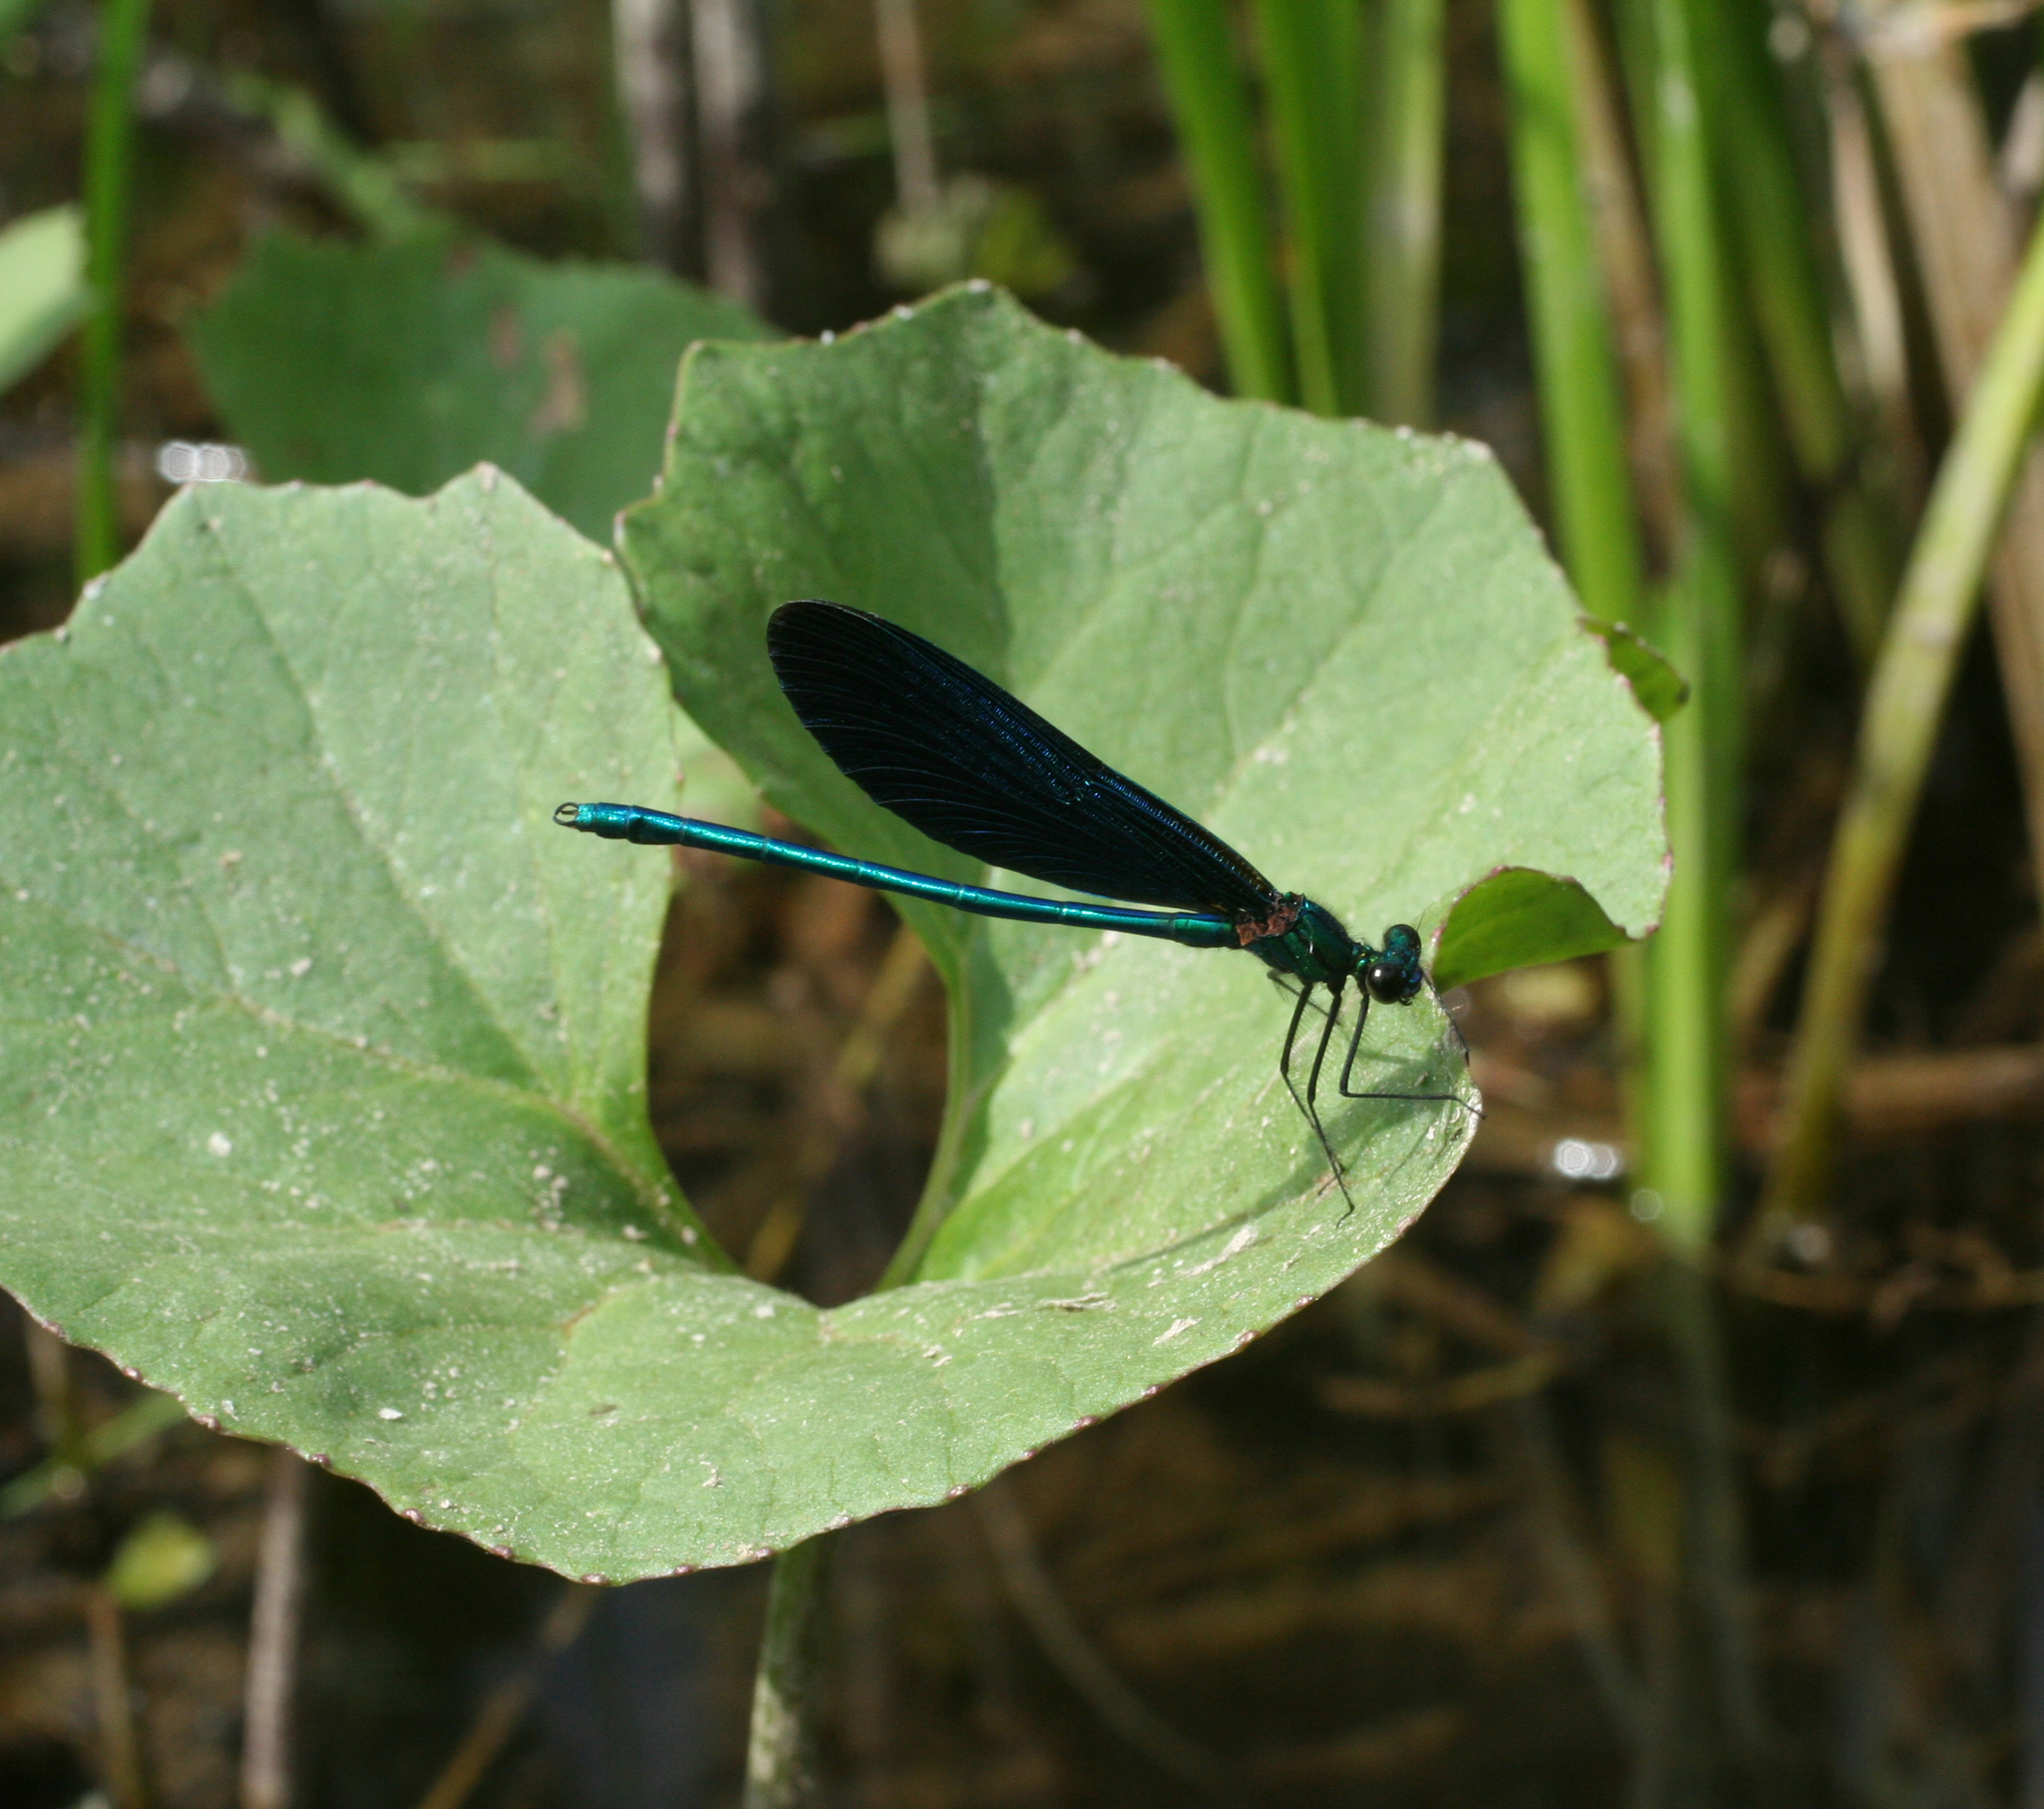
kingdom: Animalia
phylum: Arthropoda
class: Insecta
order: Odonata
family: Calopterygidae
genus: Calopteryx
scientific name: Calopteryx virgo
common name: Beautiful demoiselle
